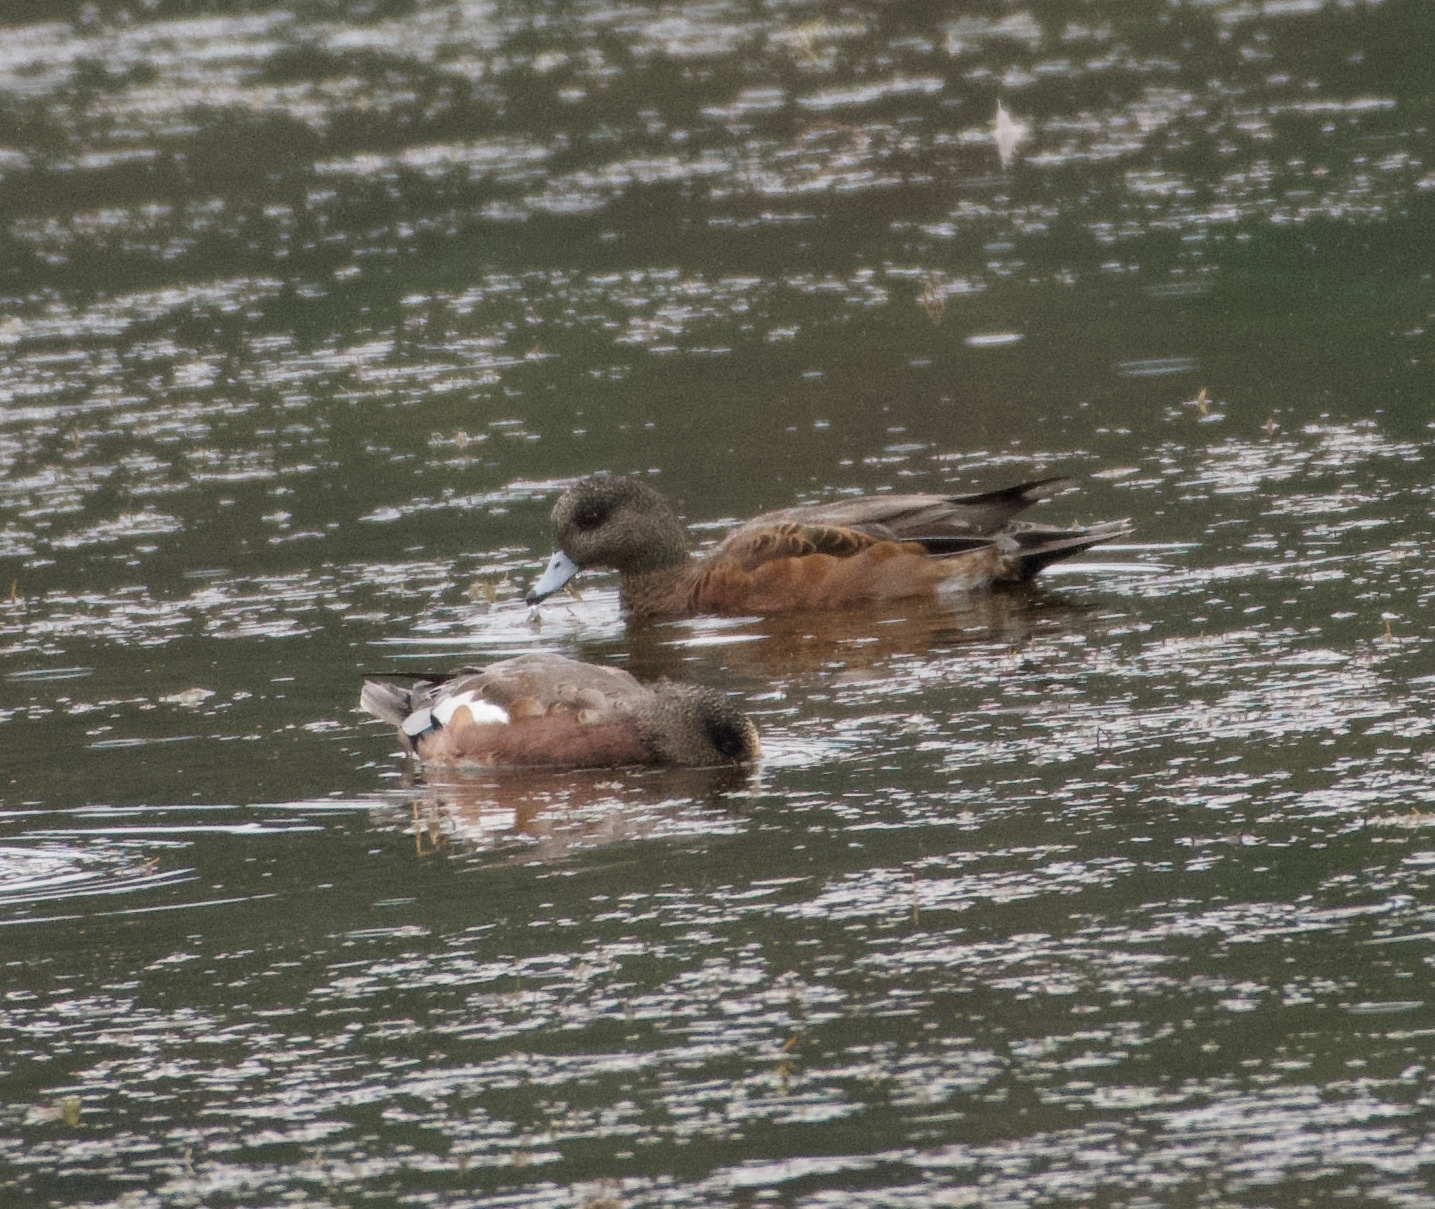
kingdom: Animalia
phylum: Chordata
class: Aves
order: Anseriformes
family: Anatidae
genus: Mareca
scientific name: Mareca americana
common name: American wigeon
